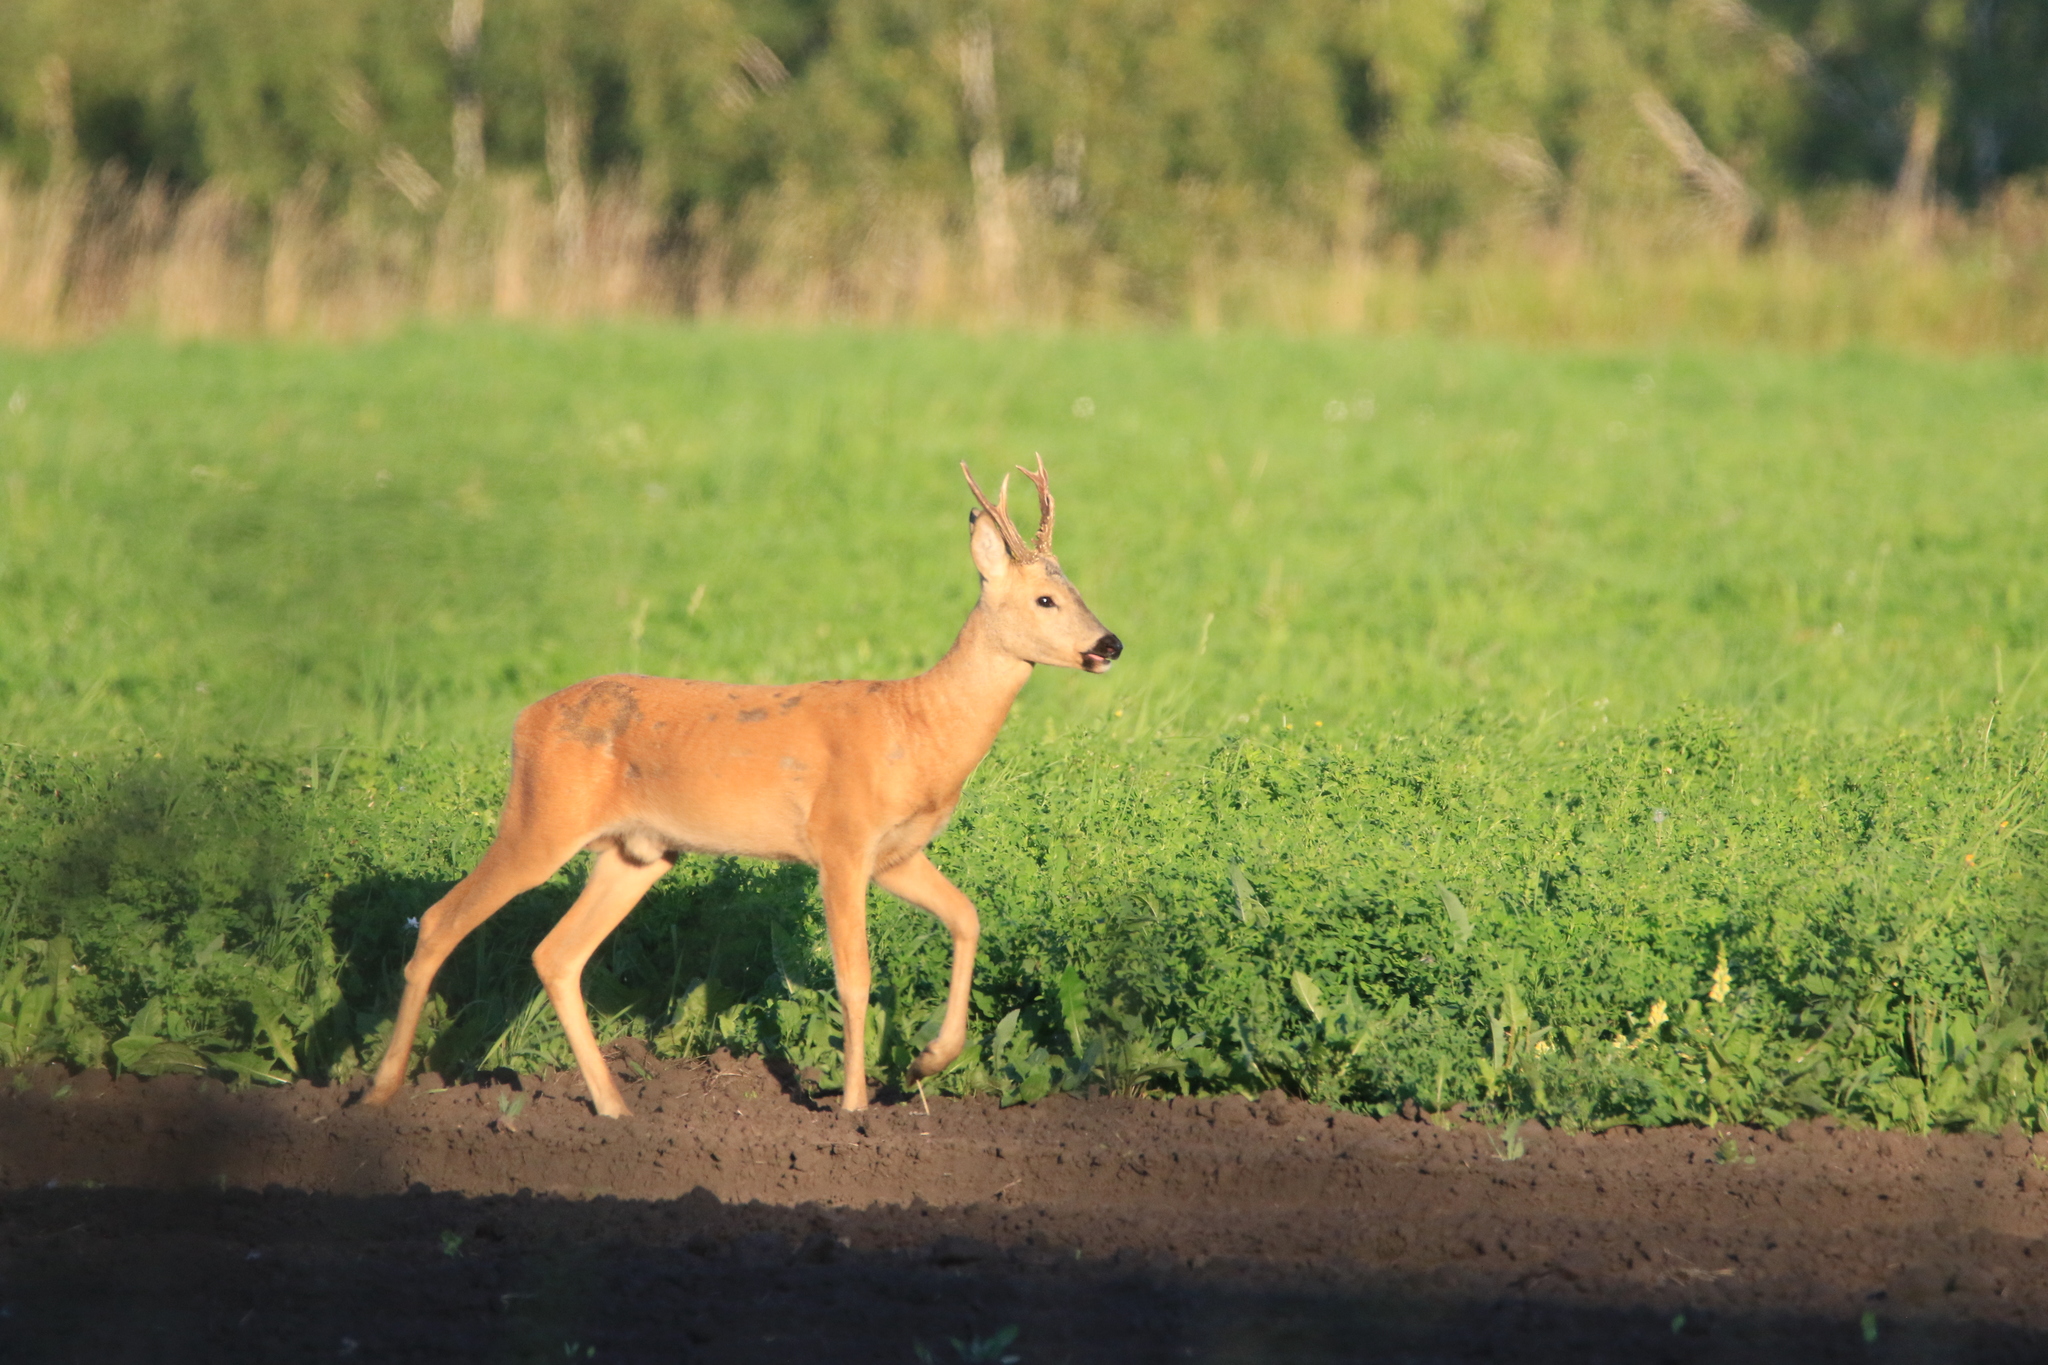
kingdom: Animalia
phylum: Chordata
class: Mammalia
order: Artiodactyla
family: Cervidae
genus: Capreolus
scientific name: Capreolus pygargus
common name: Siberian roe
